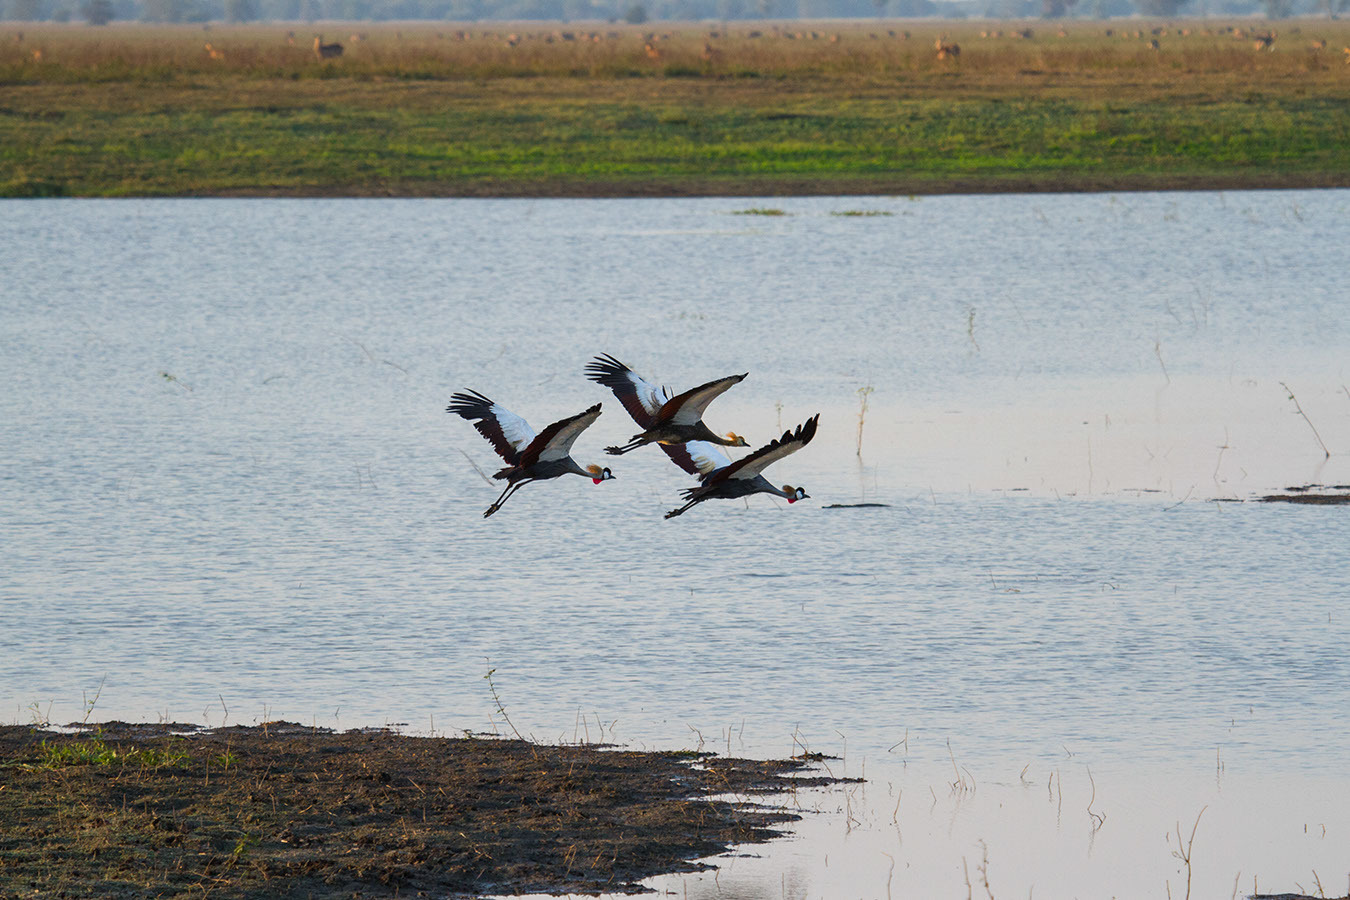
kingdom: Animalia
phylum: Chordata
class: Aves
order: Gruiformes
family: Gruidae
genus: Balearica
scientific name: Balearica regulorum
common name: Grey crowned crane
